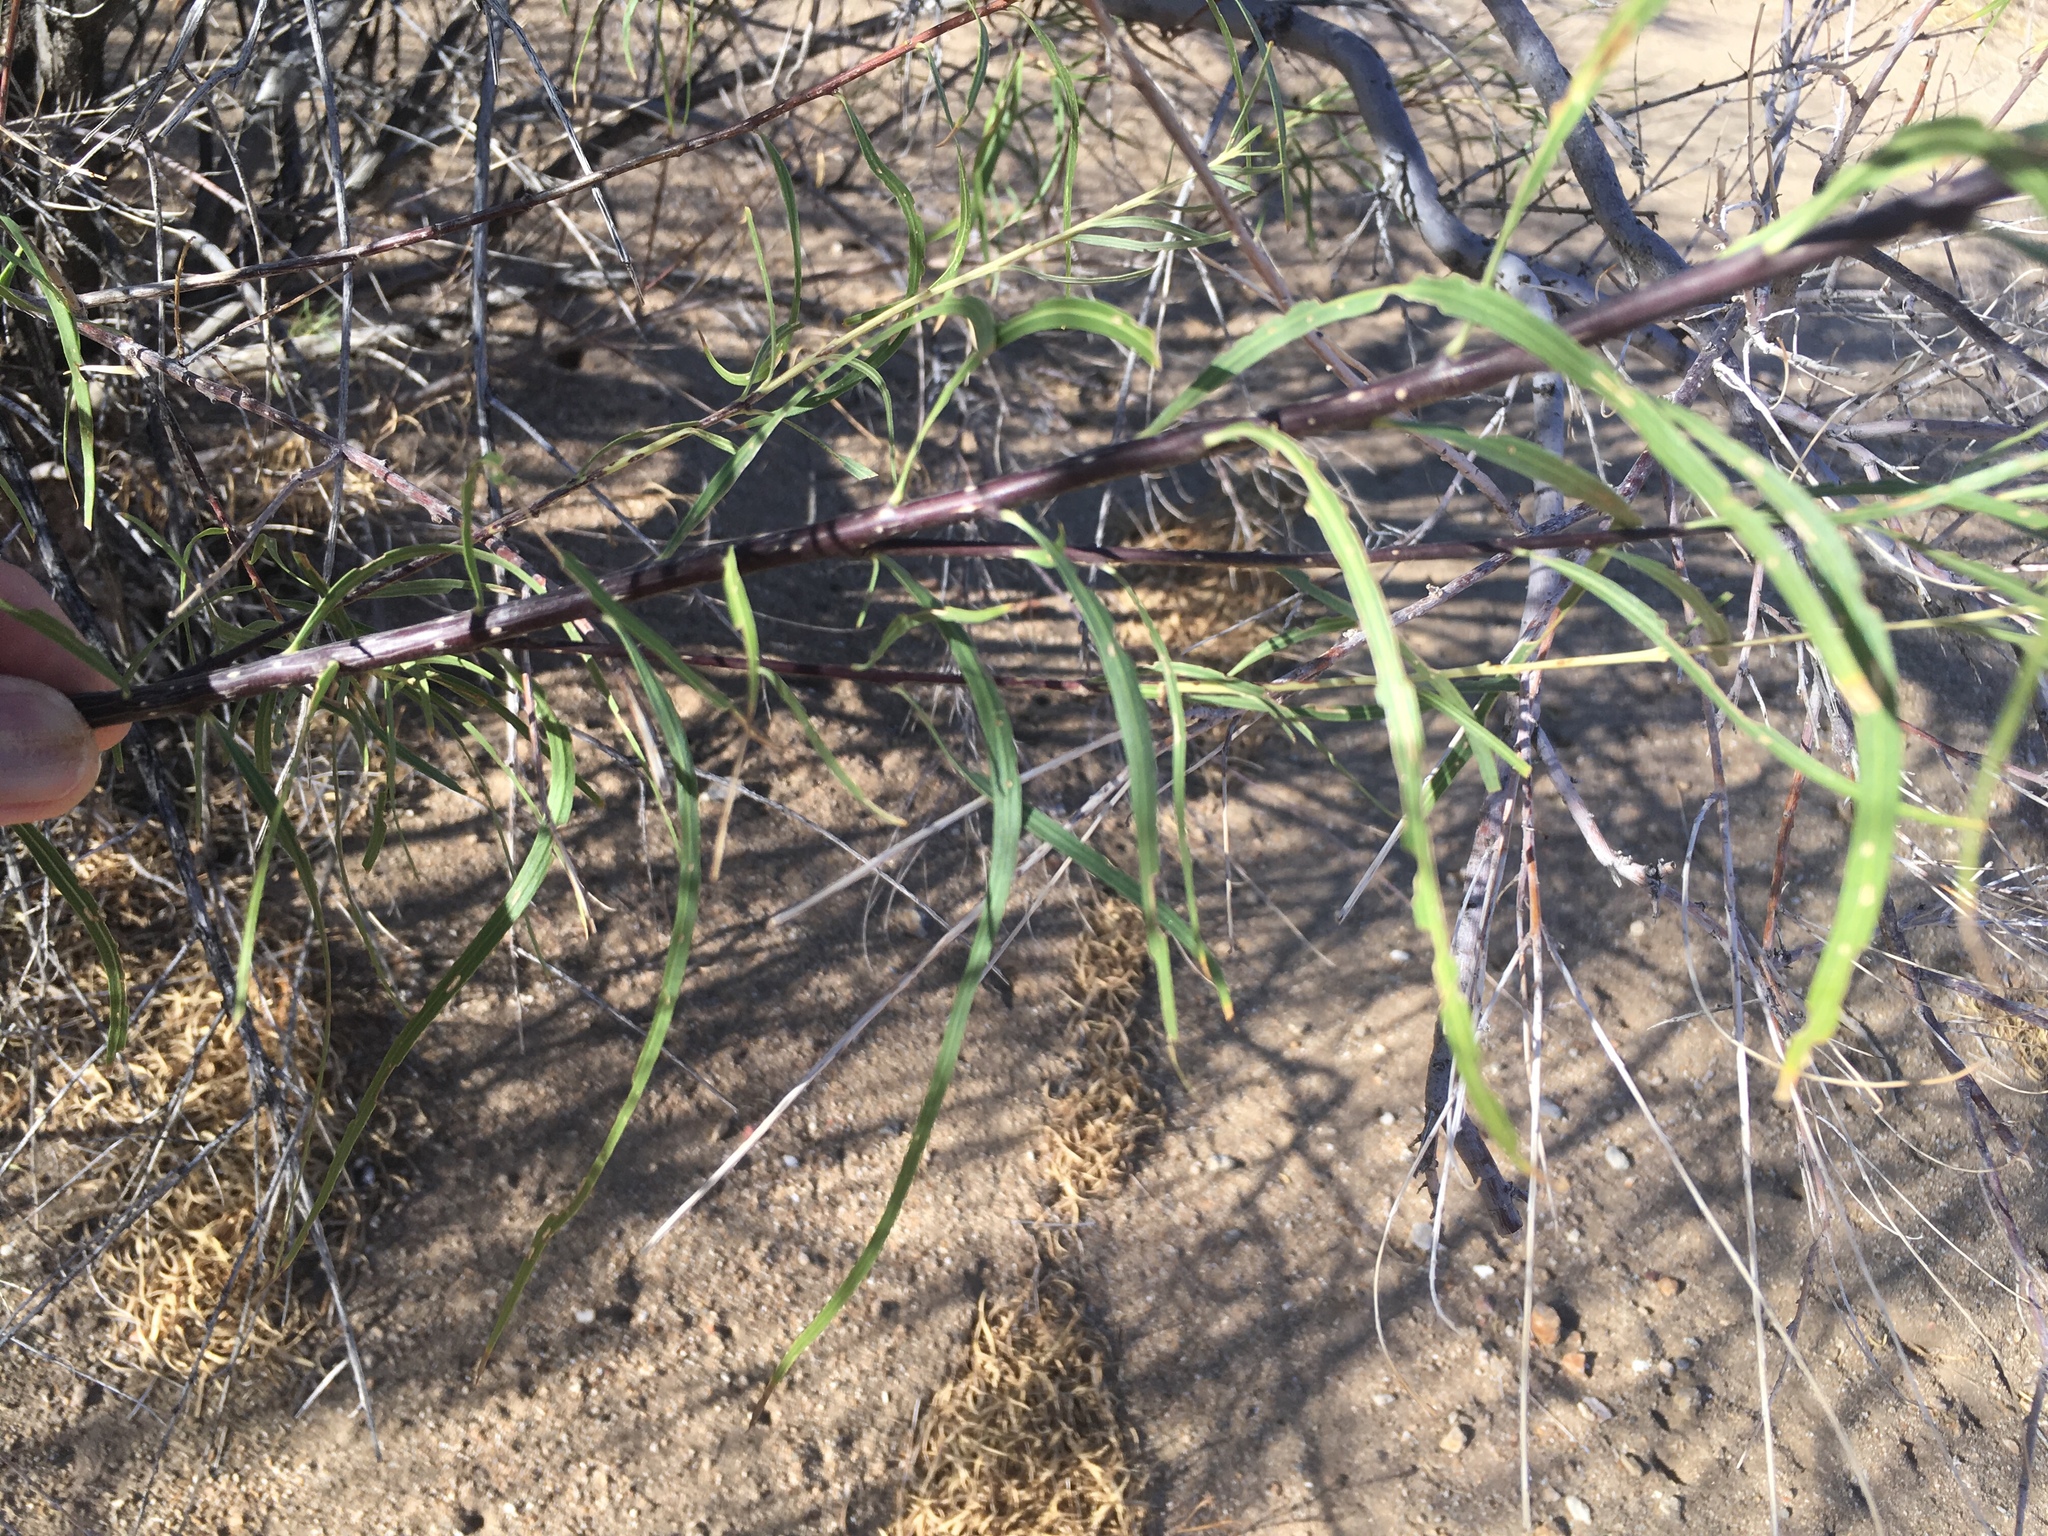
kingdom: Plantae
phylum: Tracheophyta
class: Magnoliopsida
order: Lamiales
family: Bignoniaceae
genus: Chilopsis
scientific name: Chilopsis linearis
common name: Desert-willow
